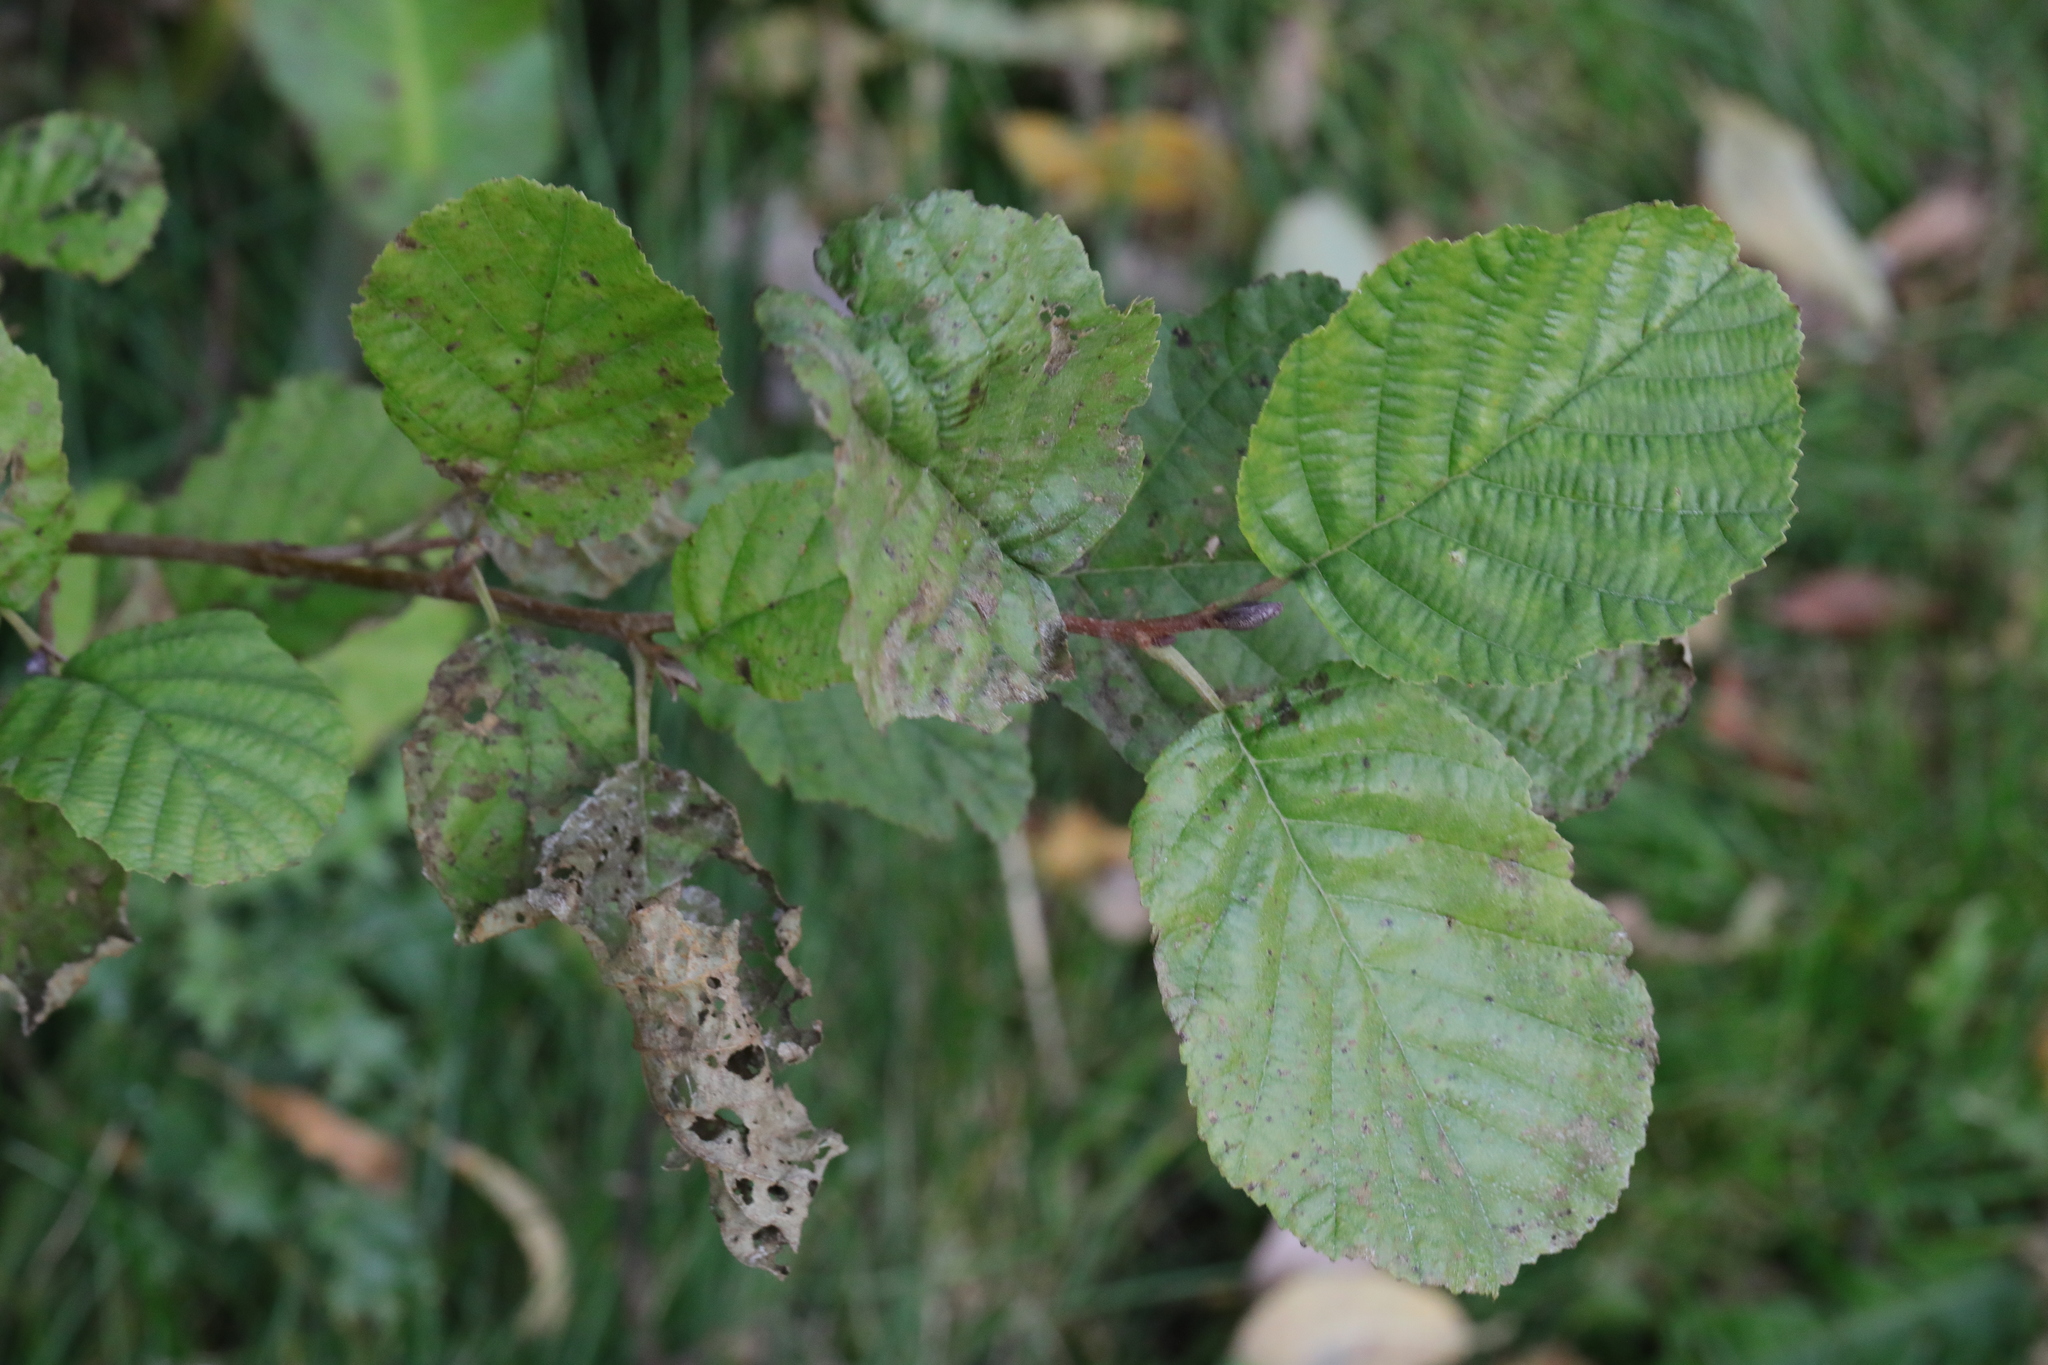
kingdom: Plantae
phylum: Tracheophyta
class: Magnoliopsida
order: Fagales
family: Betulaceae
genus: Alnus
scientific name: Alnus glutinosa
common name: Black alder
